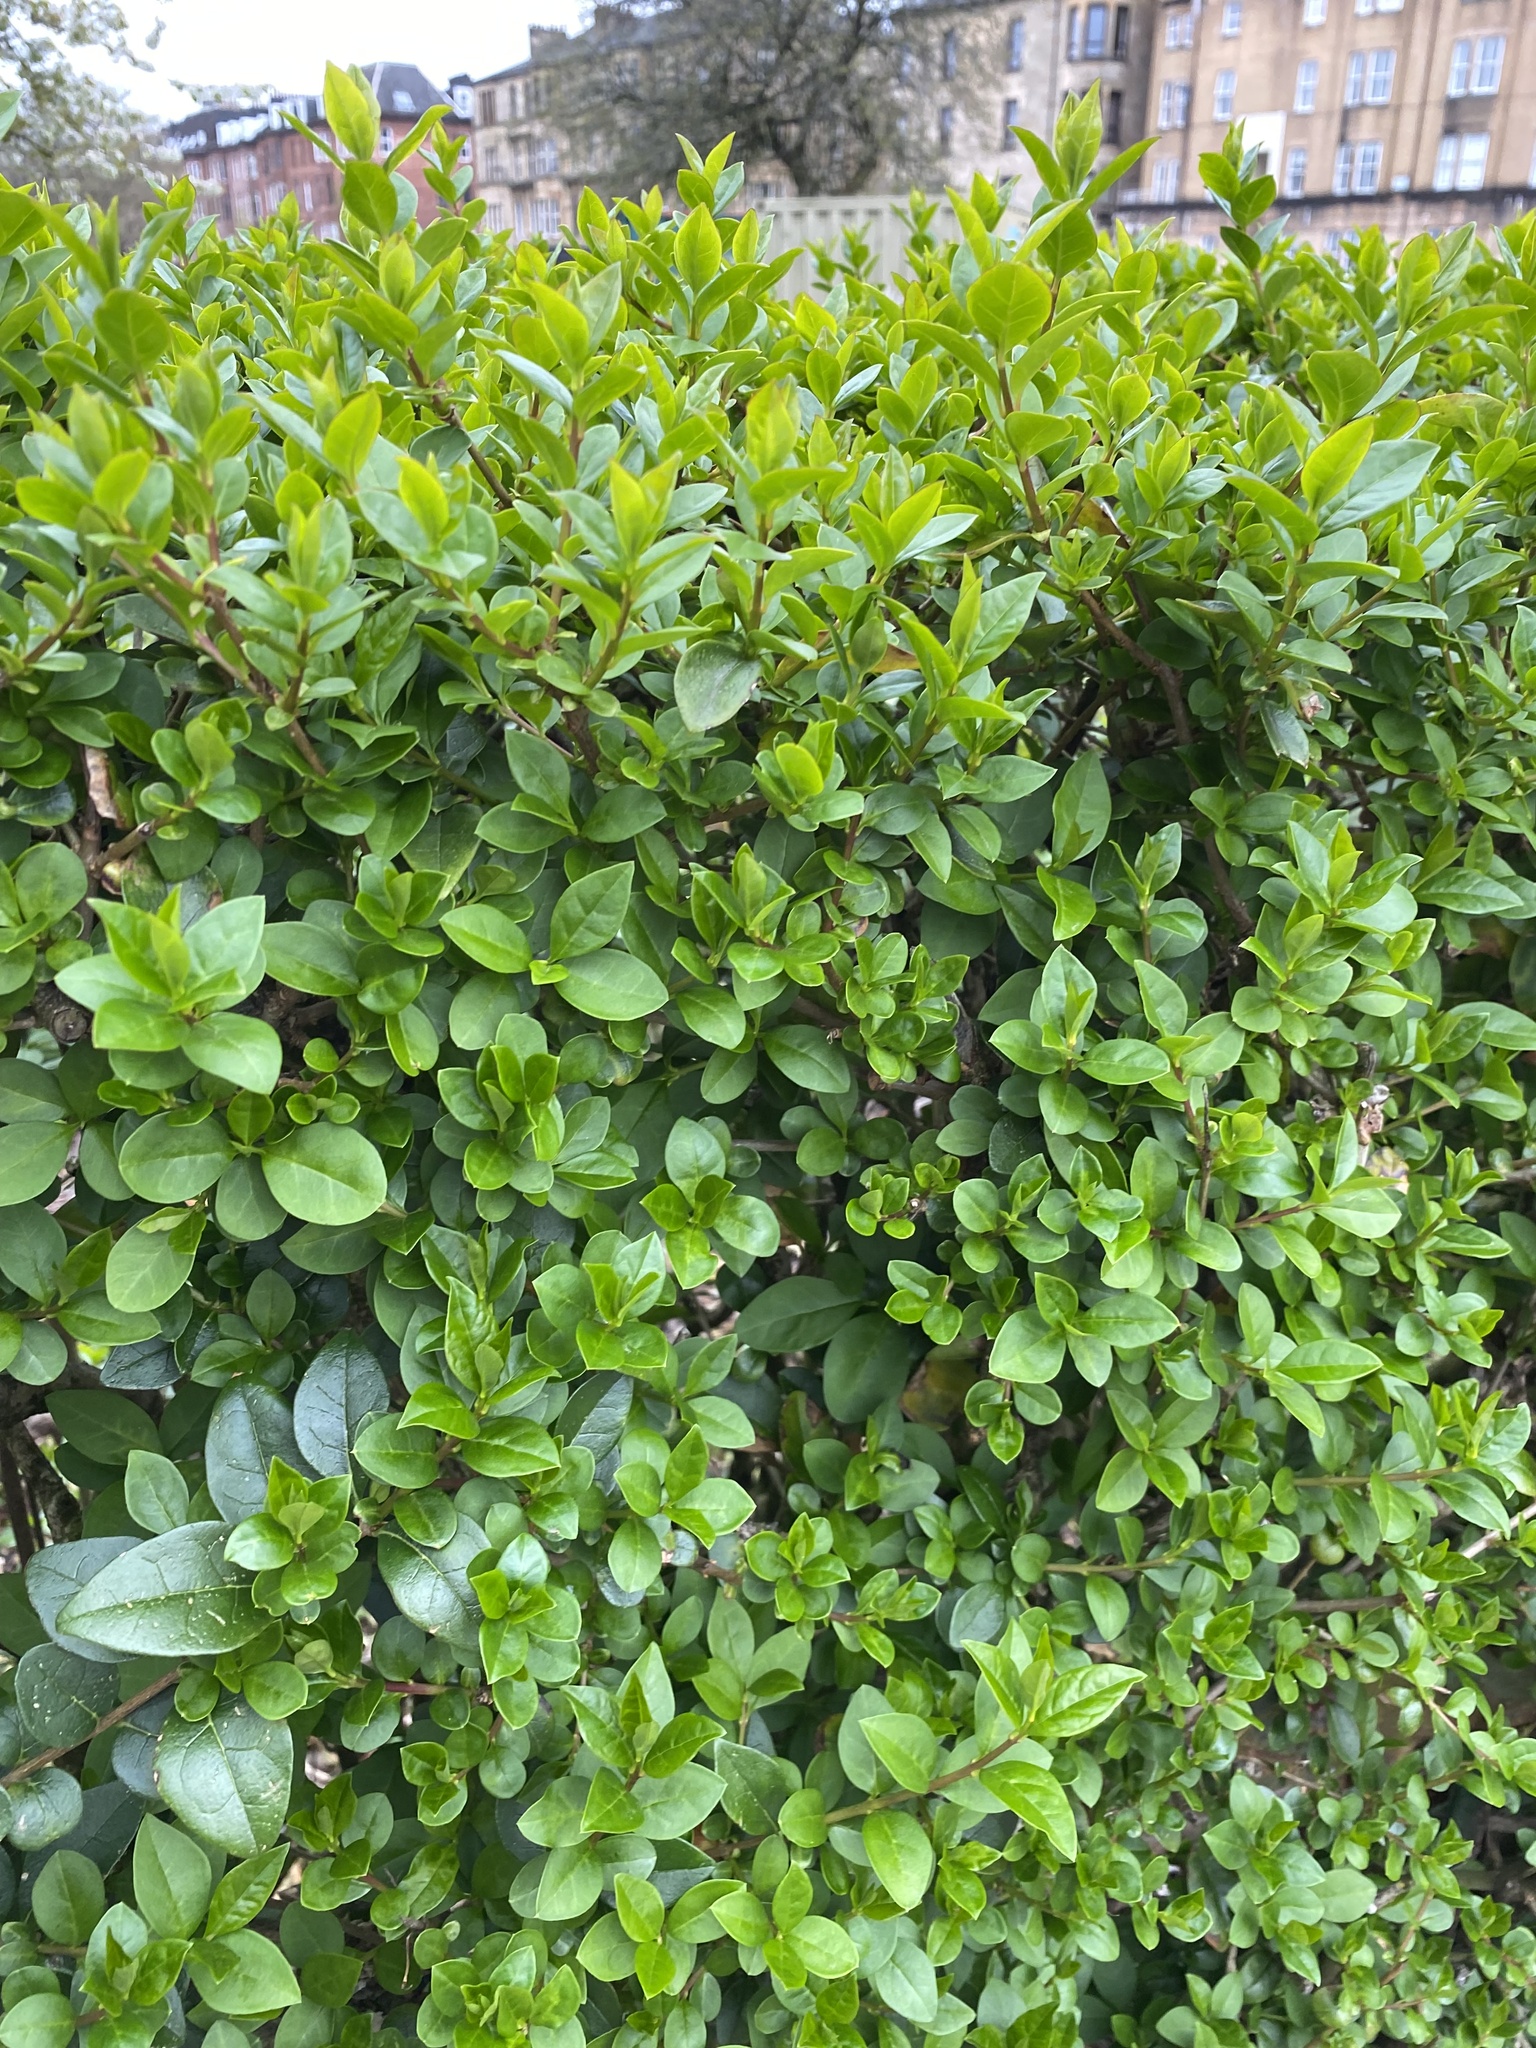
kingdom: Plantae
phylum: Tracheophyta
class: Magnoliopsida
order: Lamiales
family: Oleaceae
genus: Ligustrum
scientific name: Ligustrum ovalifolium
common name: California privet
